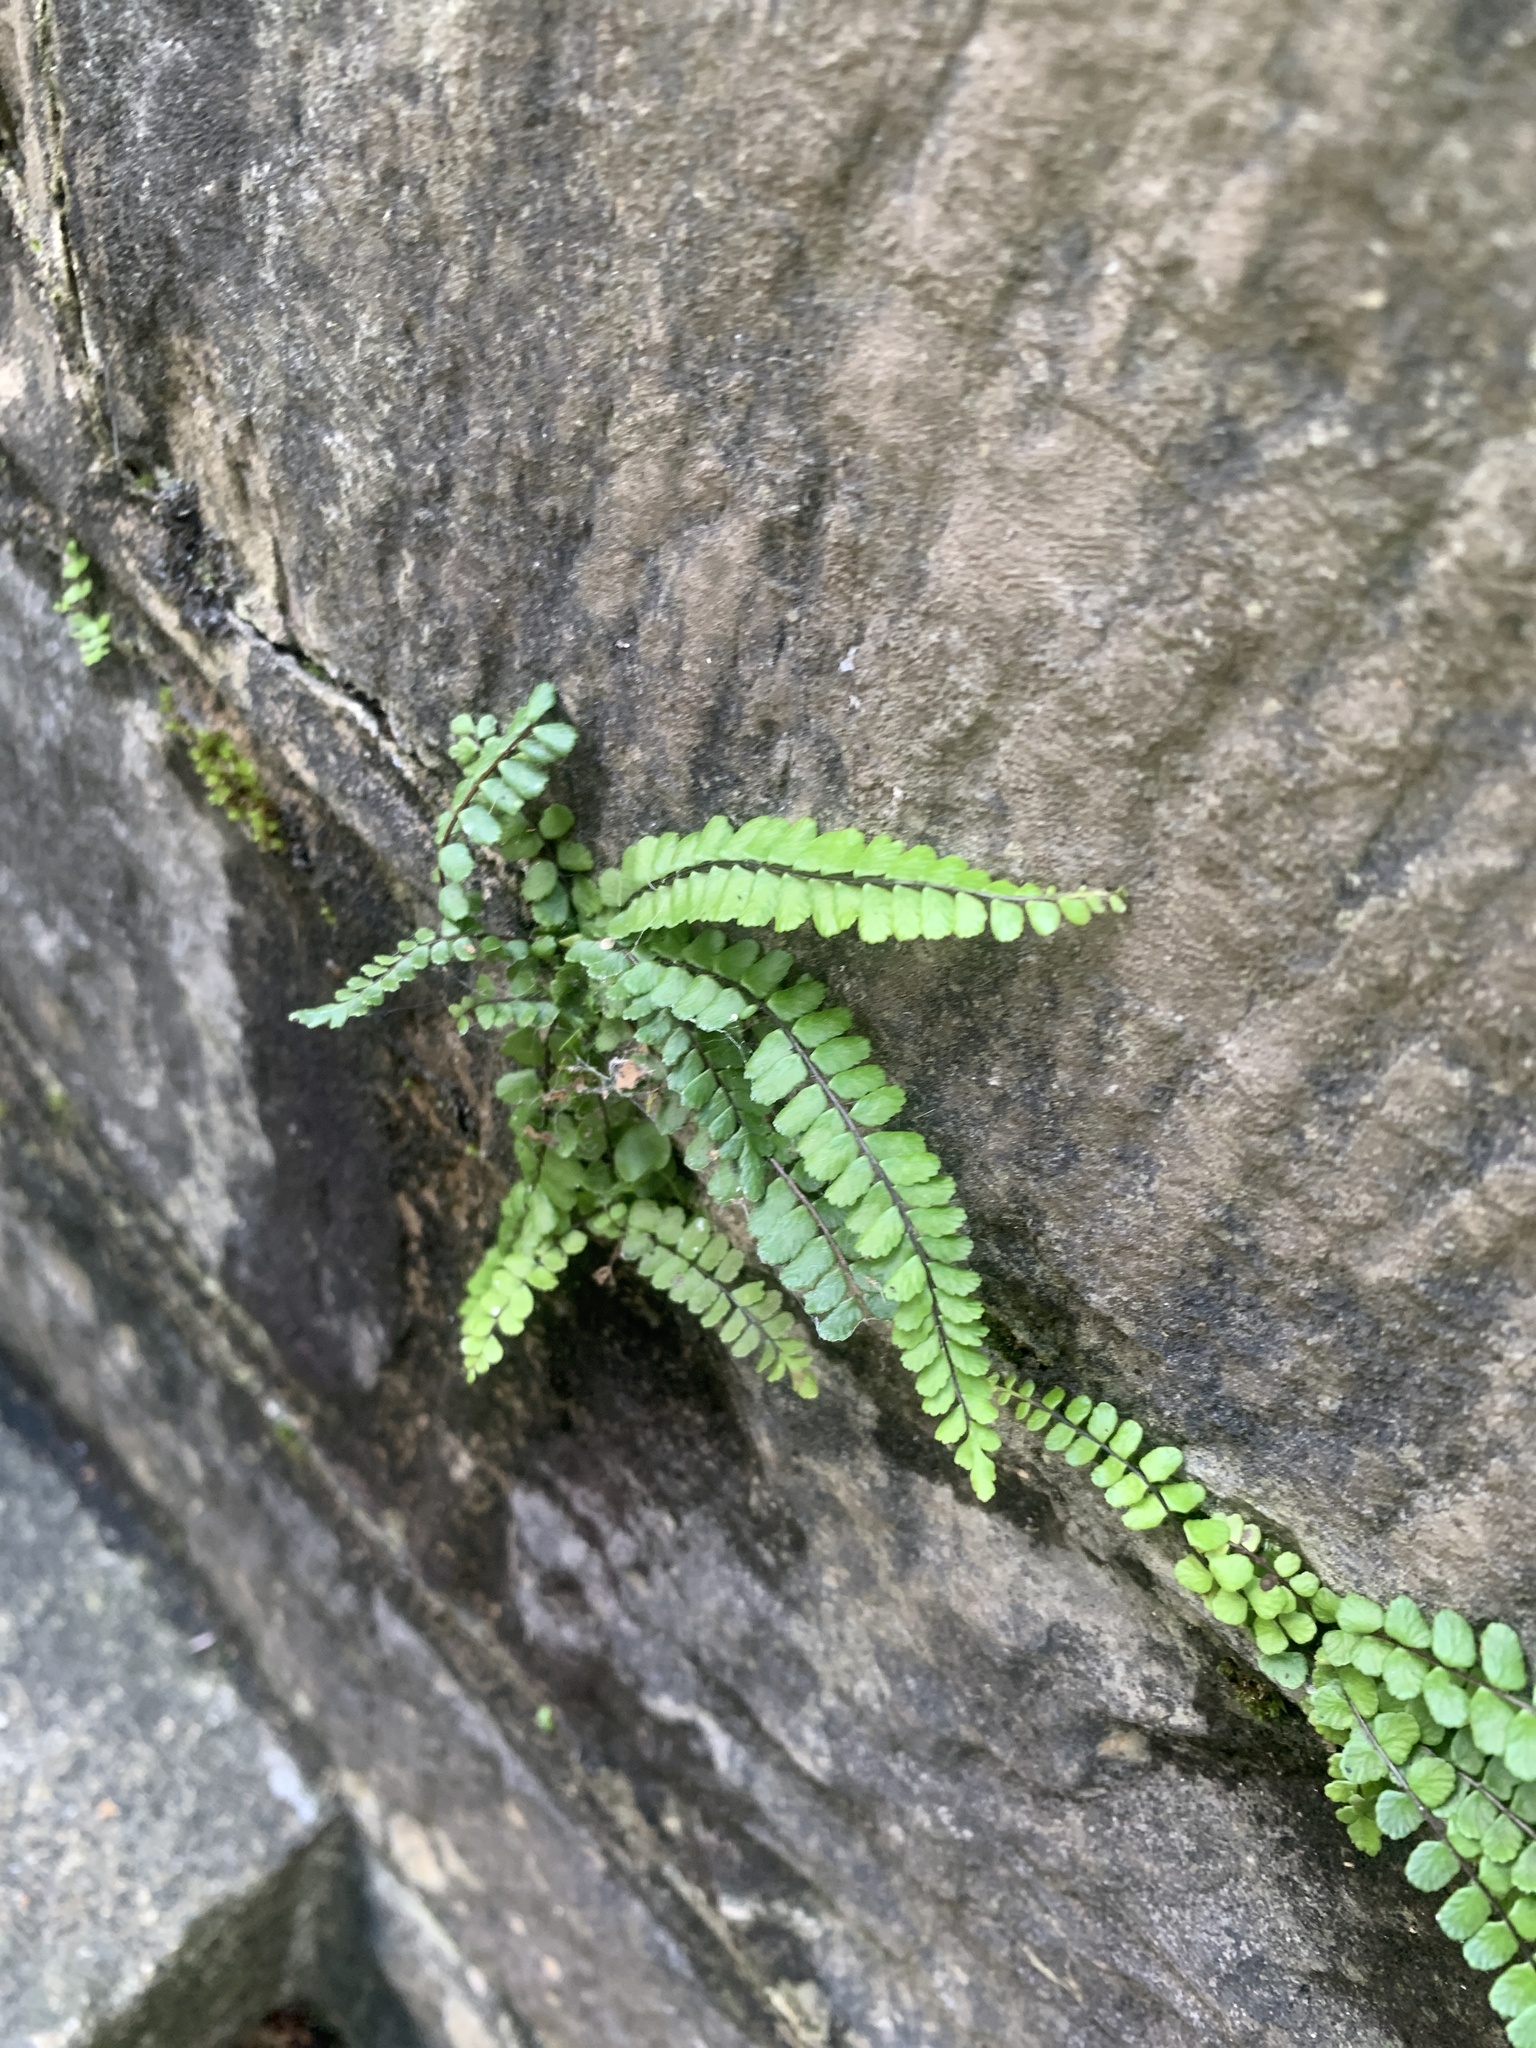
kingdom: Plantae
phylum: Tracheophyta
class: Polypodiopsida
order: Polypodiales
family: Aspleniaceae
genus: Asplenium
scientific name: Asplenium trichomanes
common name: Maidenhair spleenwort
